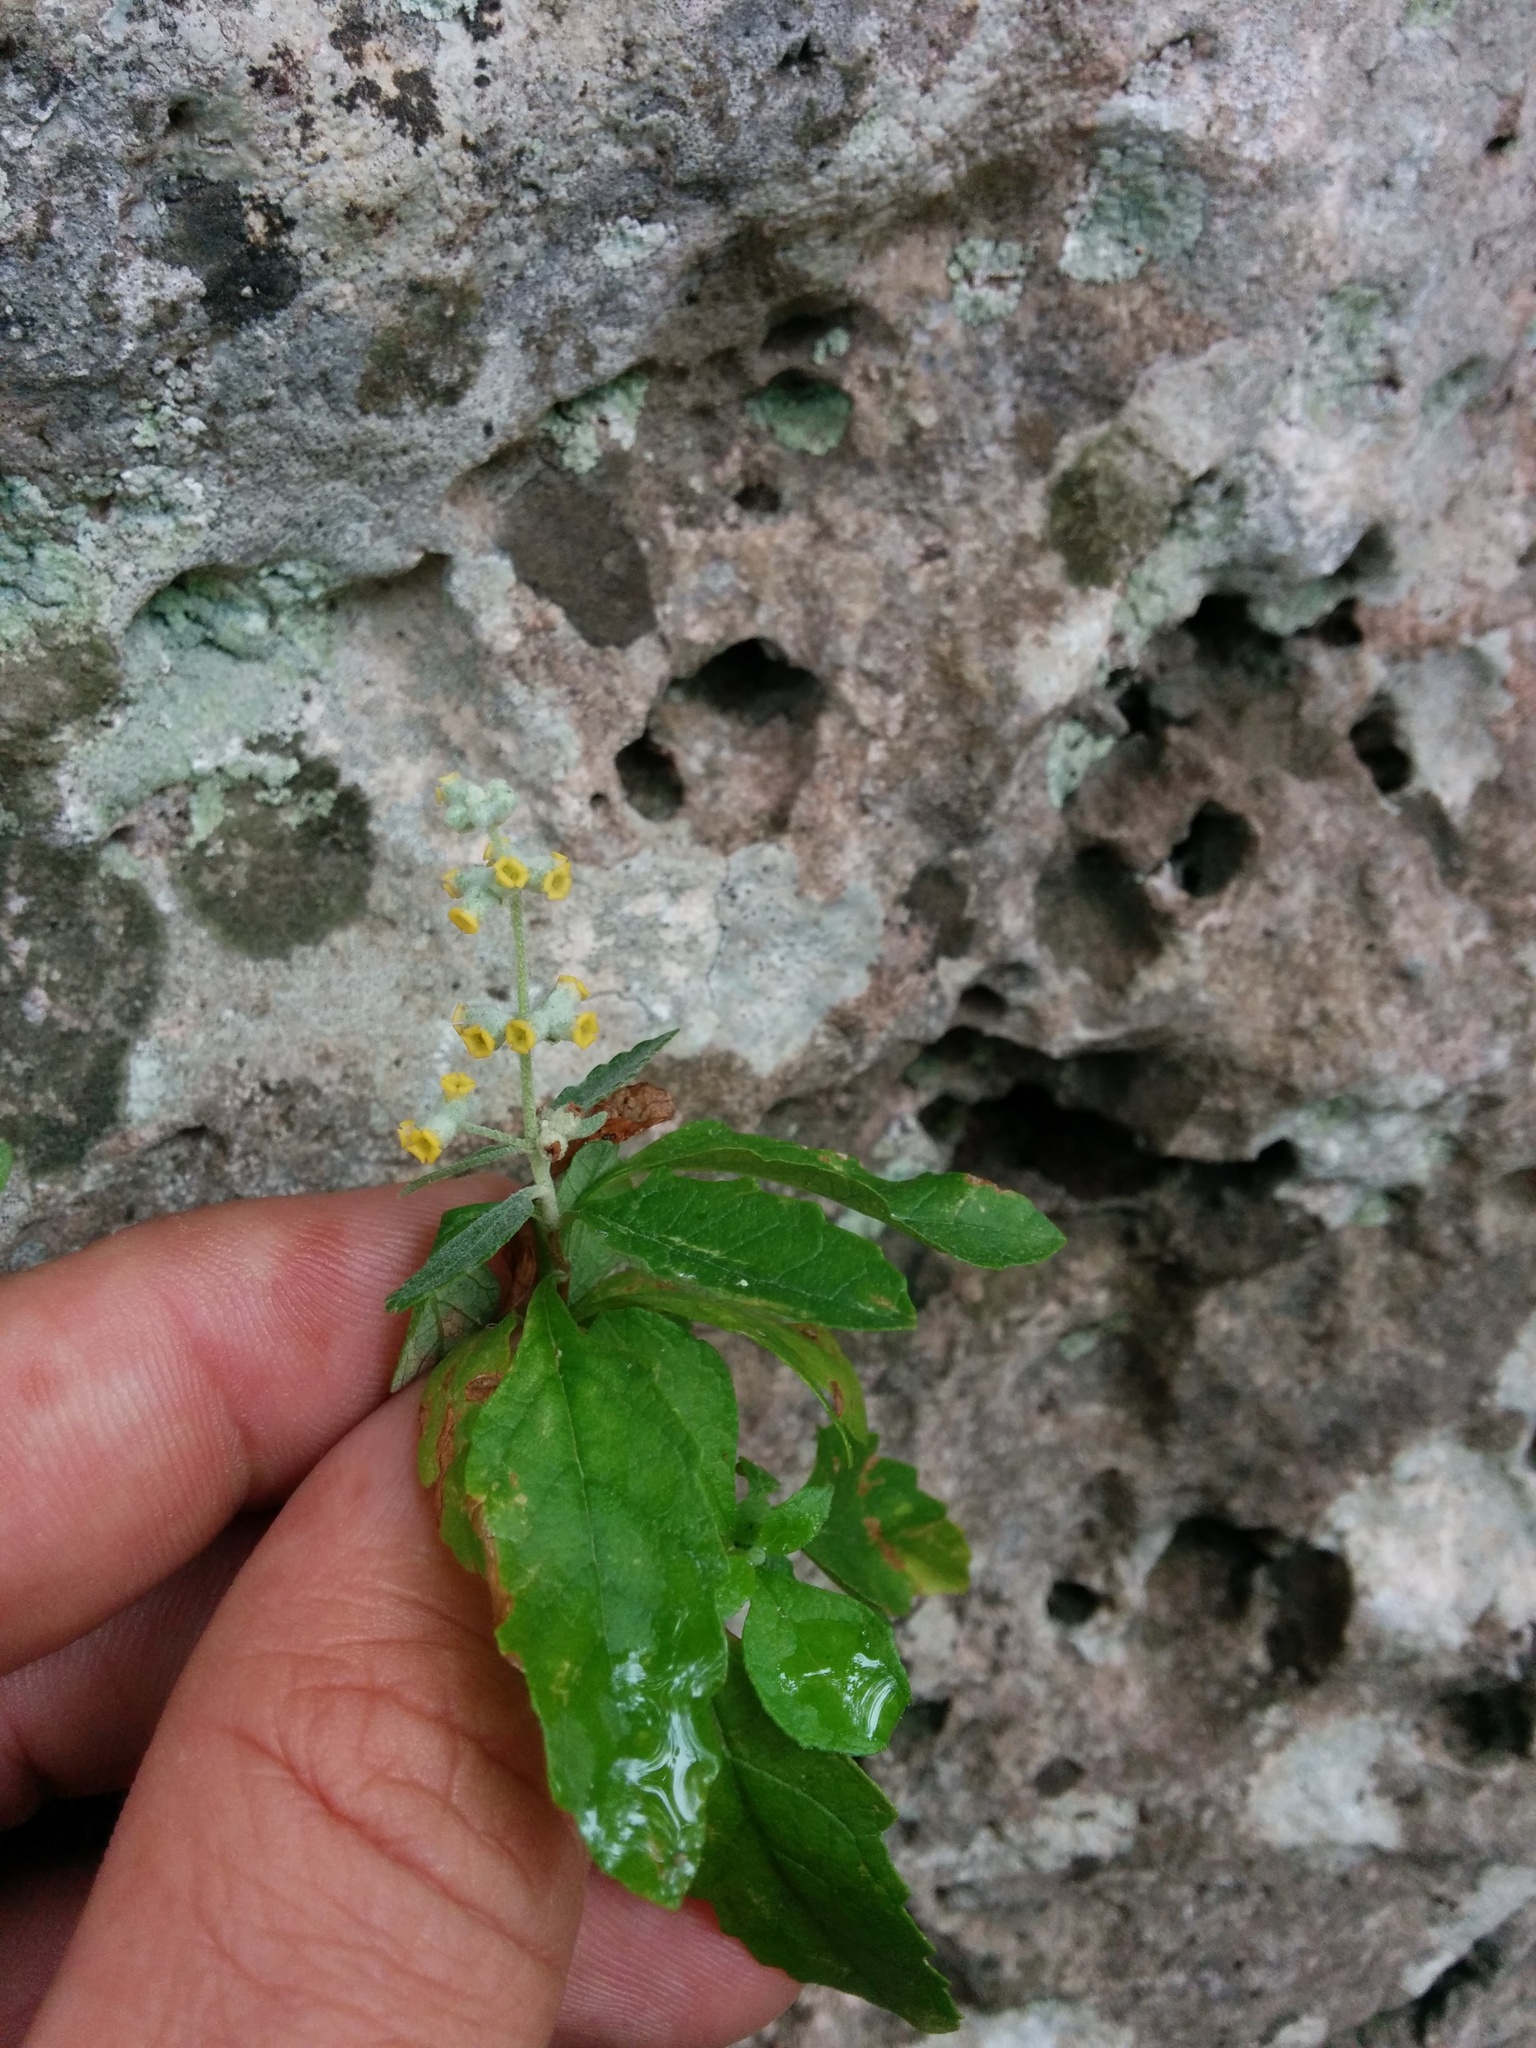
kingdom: Plantae
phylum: Tracheophyta
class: Magnoliopsida
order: Lamiales
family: Scrophulariaceae
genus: Buddleja
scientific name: Buddleja racemosa
